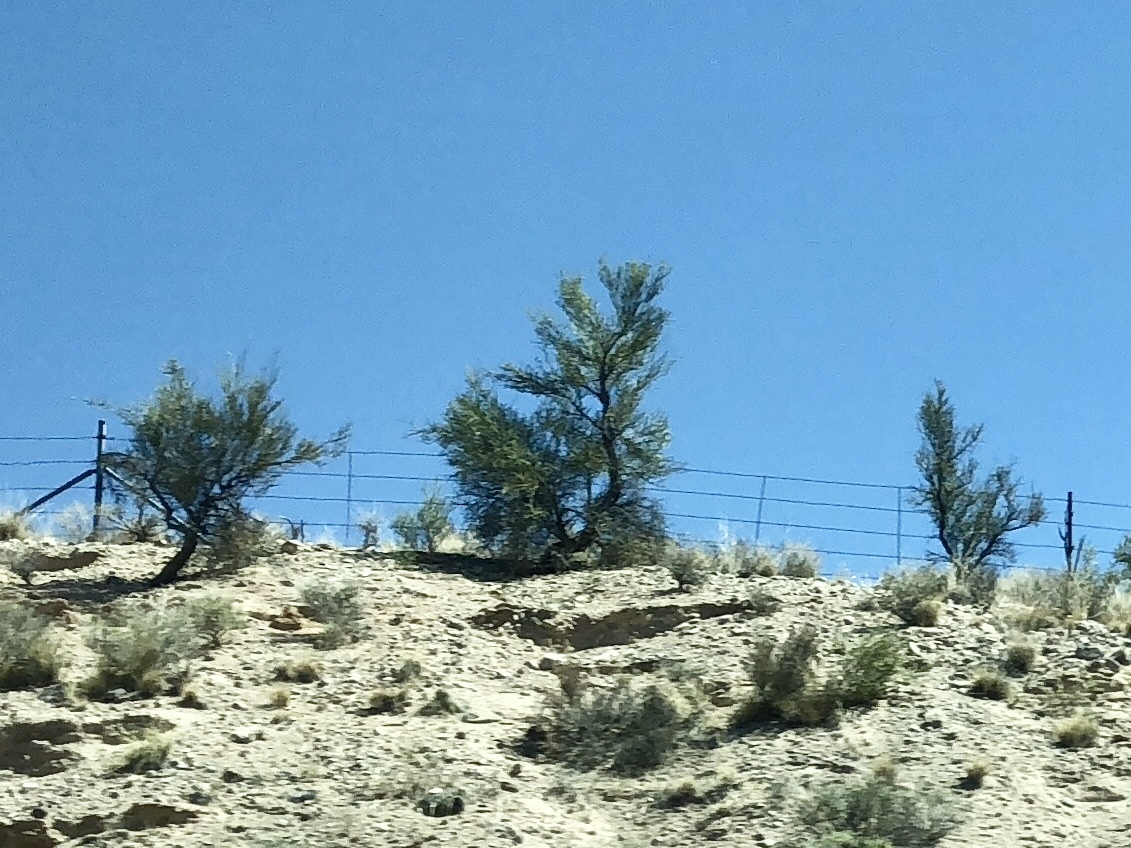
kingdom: Plantae
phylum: Tracheophyta
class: Magnoliopsida
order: Celastrales
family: Celastraceae
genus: Canotia
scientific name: Canotia holacantha
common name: Crucifixion thorns
